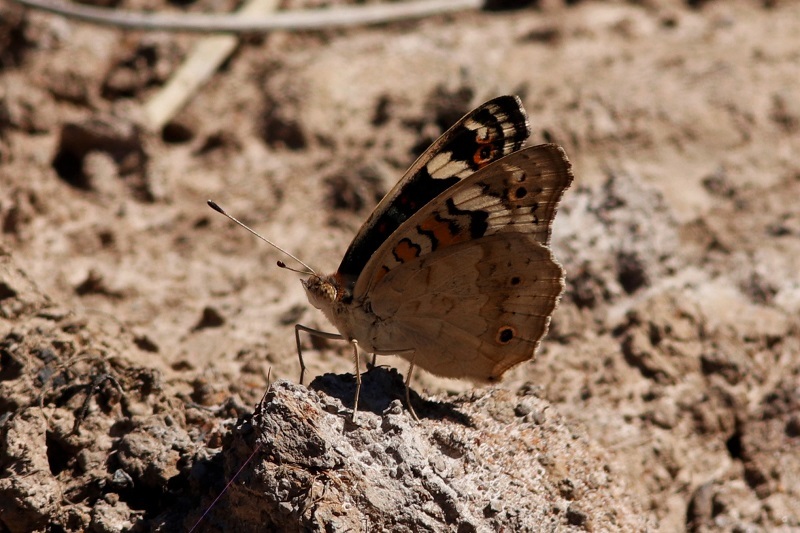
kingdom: Animalia
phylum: Arthropoda
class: Insecta
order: Lepidoptera
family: Nymphalidae
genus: Junonia
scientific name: Junonia orithya
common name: Blue pansy
